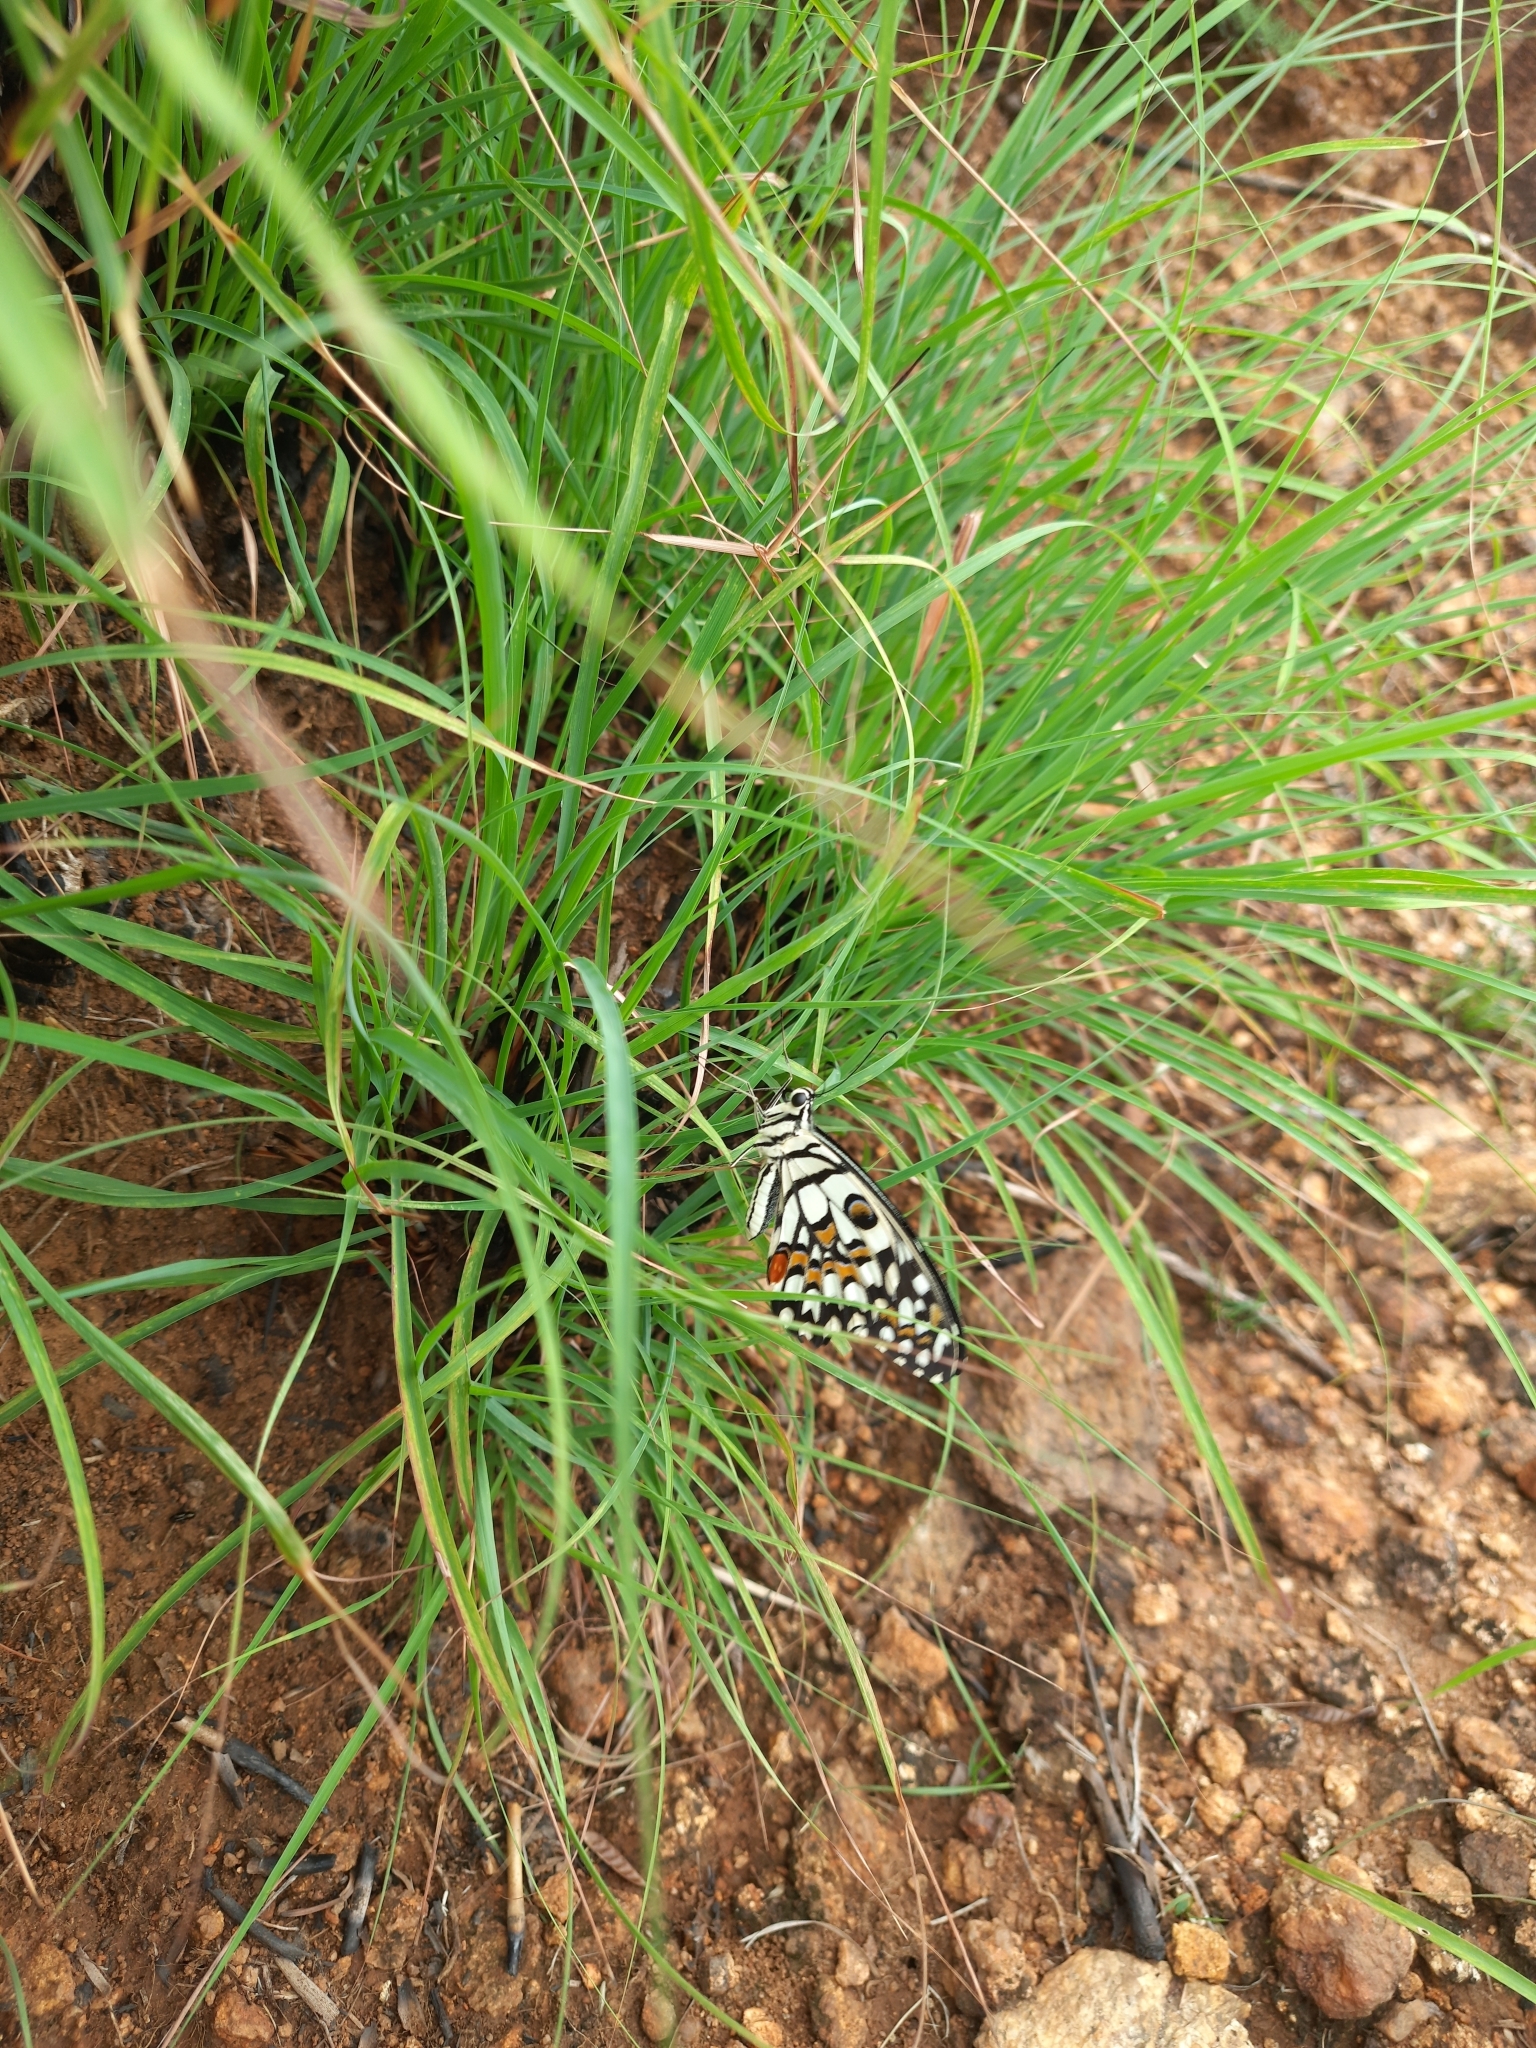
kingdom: Animalia
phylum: Arthropoda
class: Insecta
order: Lepidoptera
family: Papilionidae
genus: Papilio
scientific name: Papilio demoleus
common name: Lime butterfly
